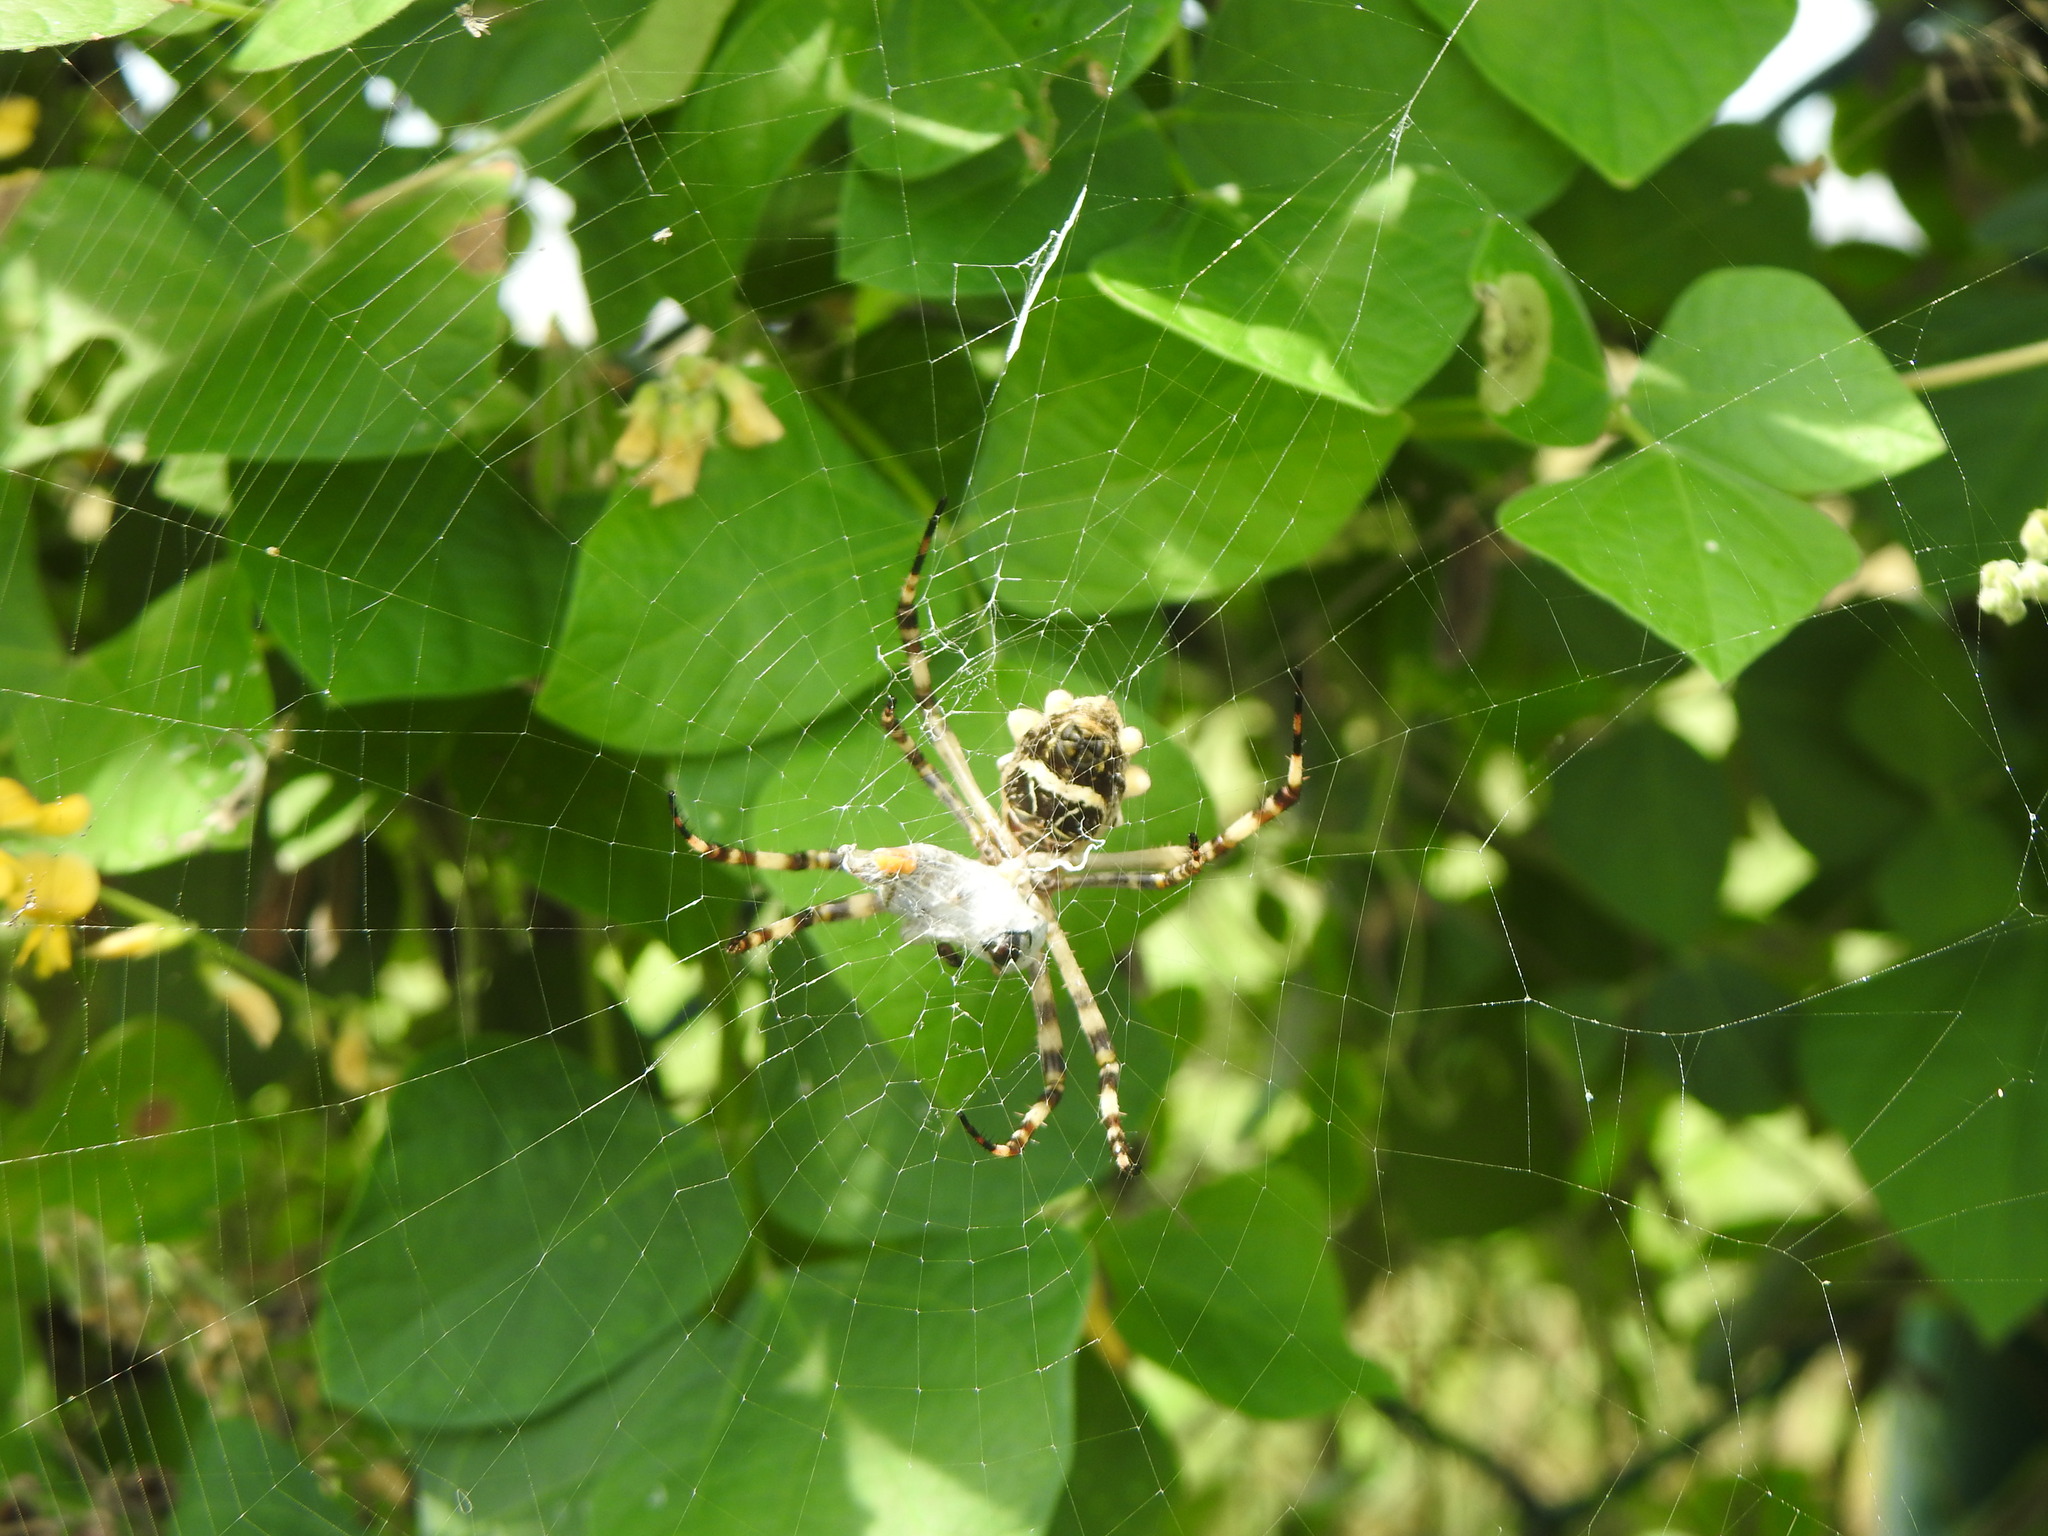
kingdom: Animalia
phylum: Arthropoda
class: Arachnida
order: Araneae
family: Araneidae
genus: Argiope
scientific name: Argiope argentata
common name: Orb weavers
